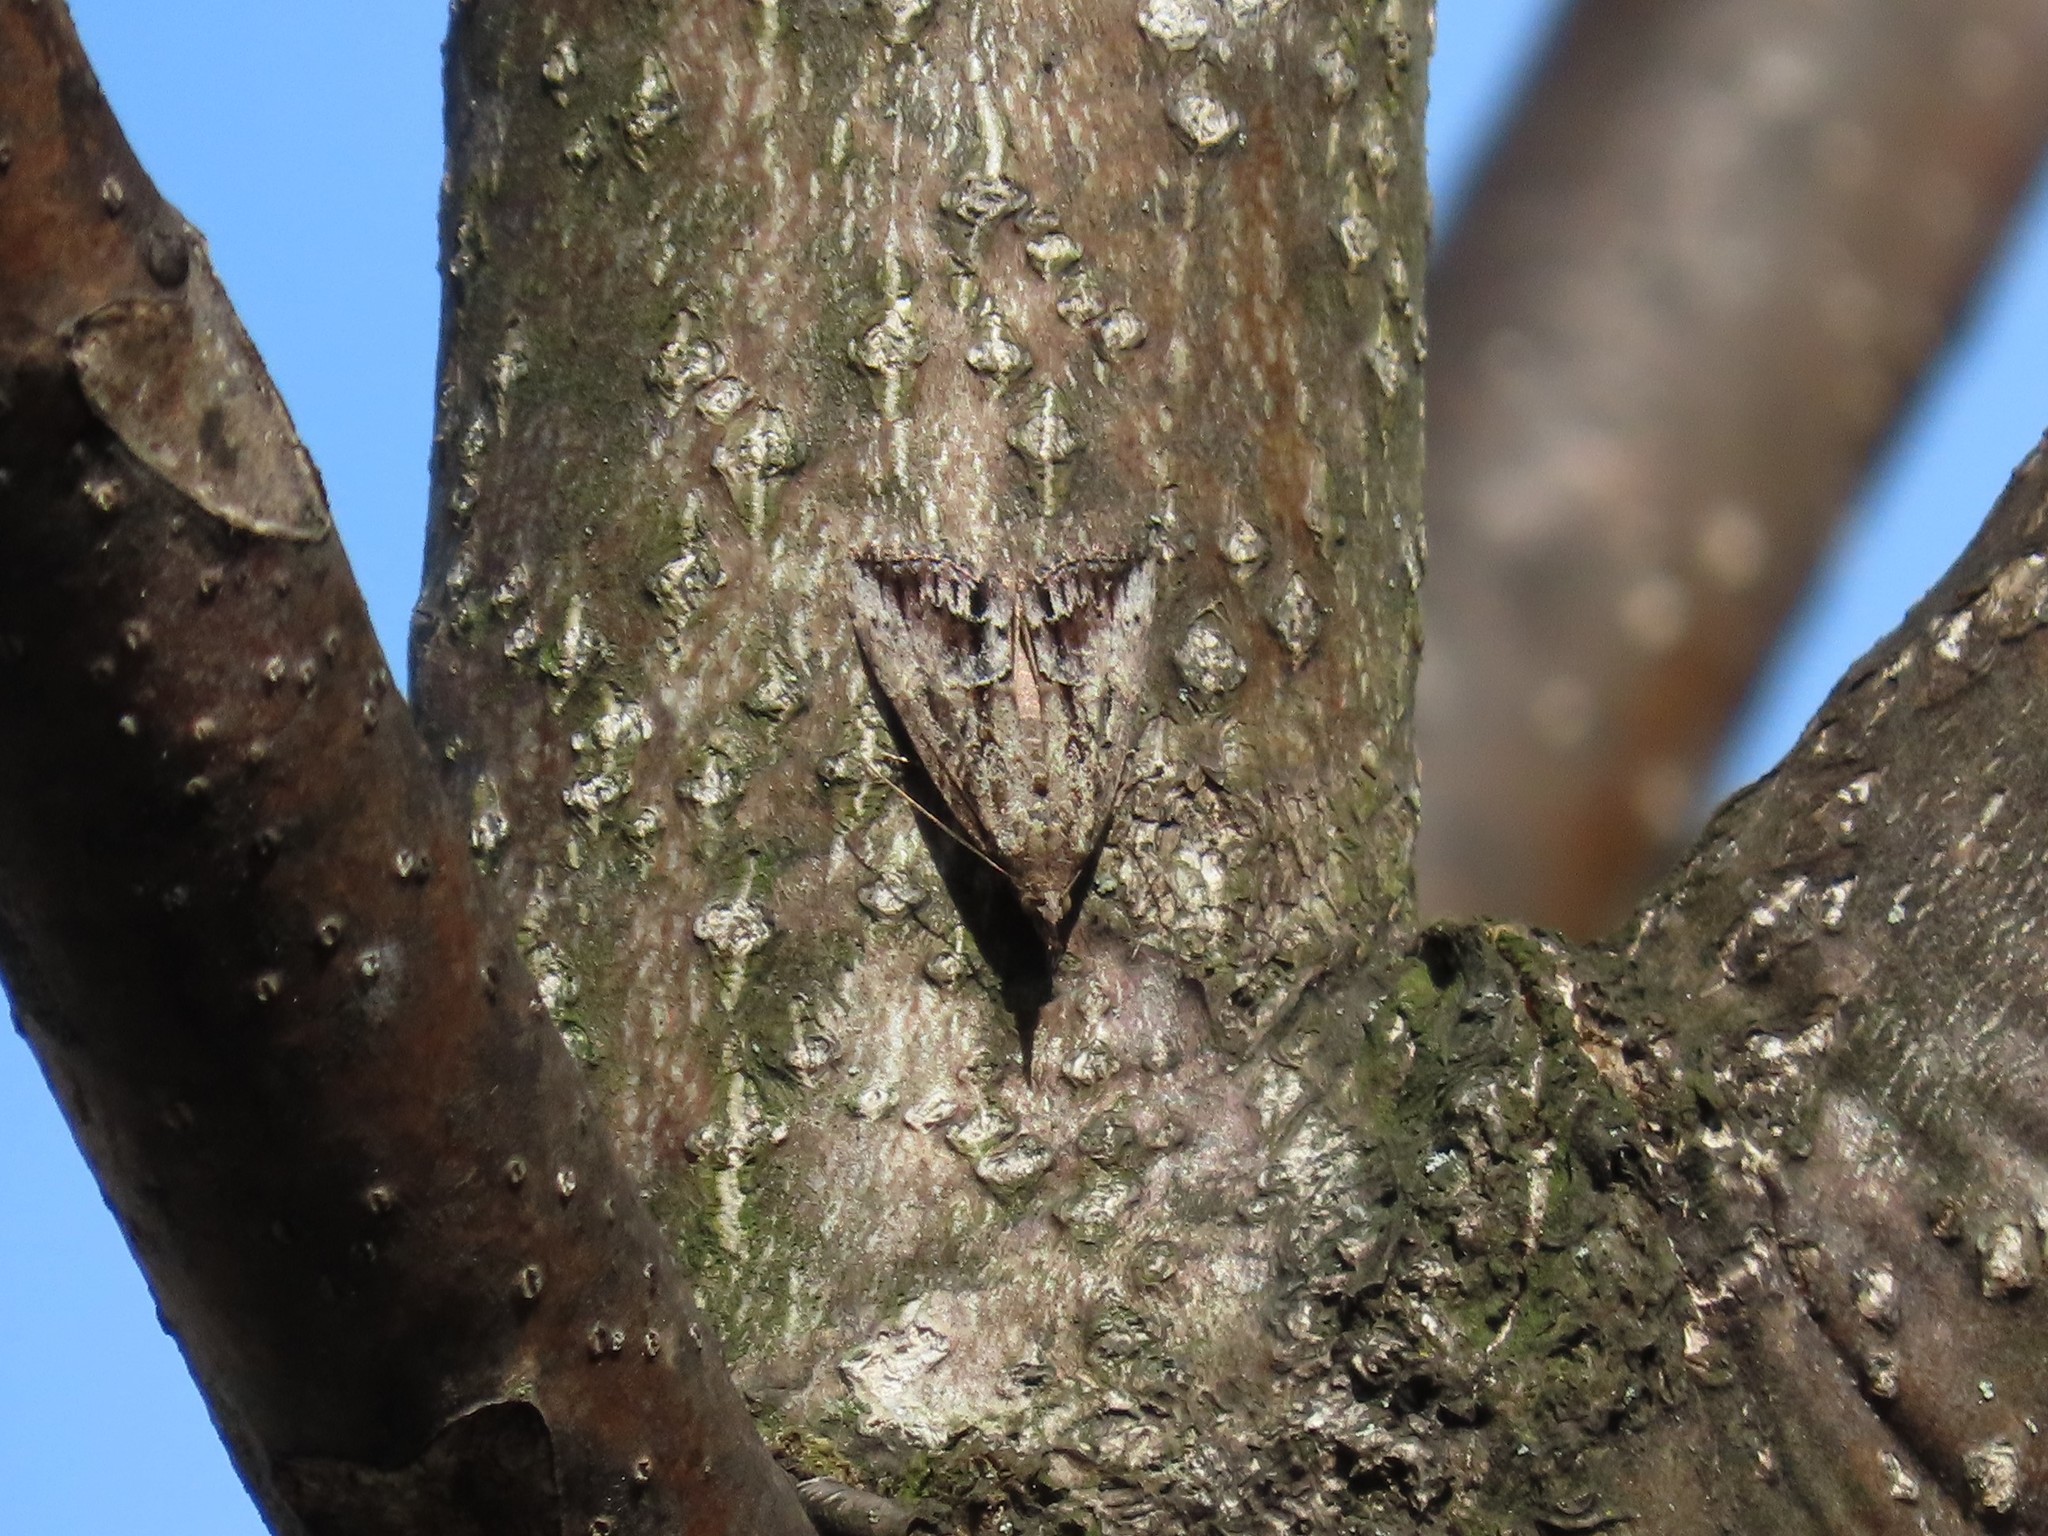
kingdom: Animalia
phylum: Arthropoda
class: Insecta
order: Lepidoptera
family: Erebidae
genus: Hypena
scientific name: Hypena scabra
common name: Green cloverworm
